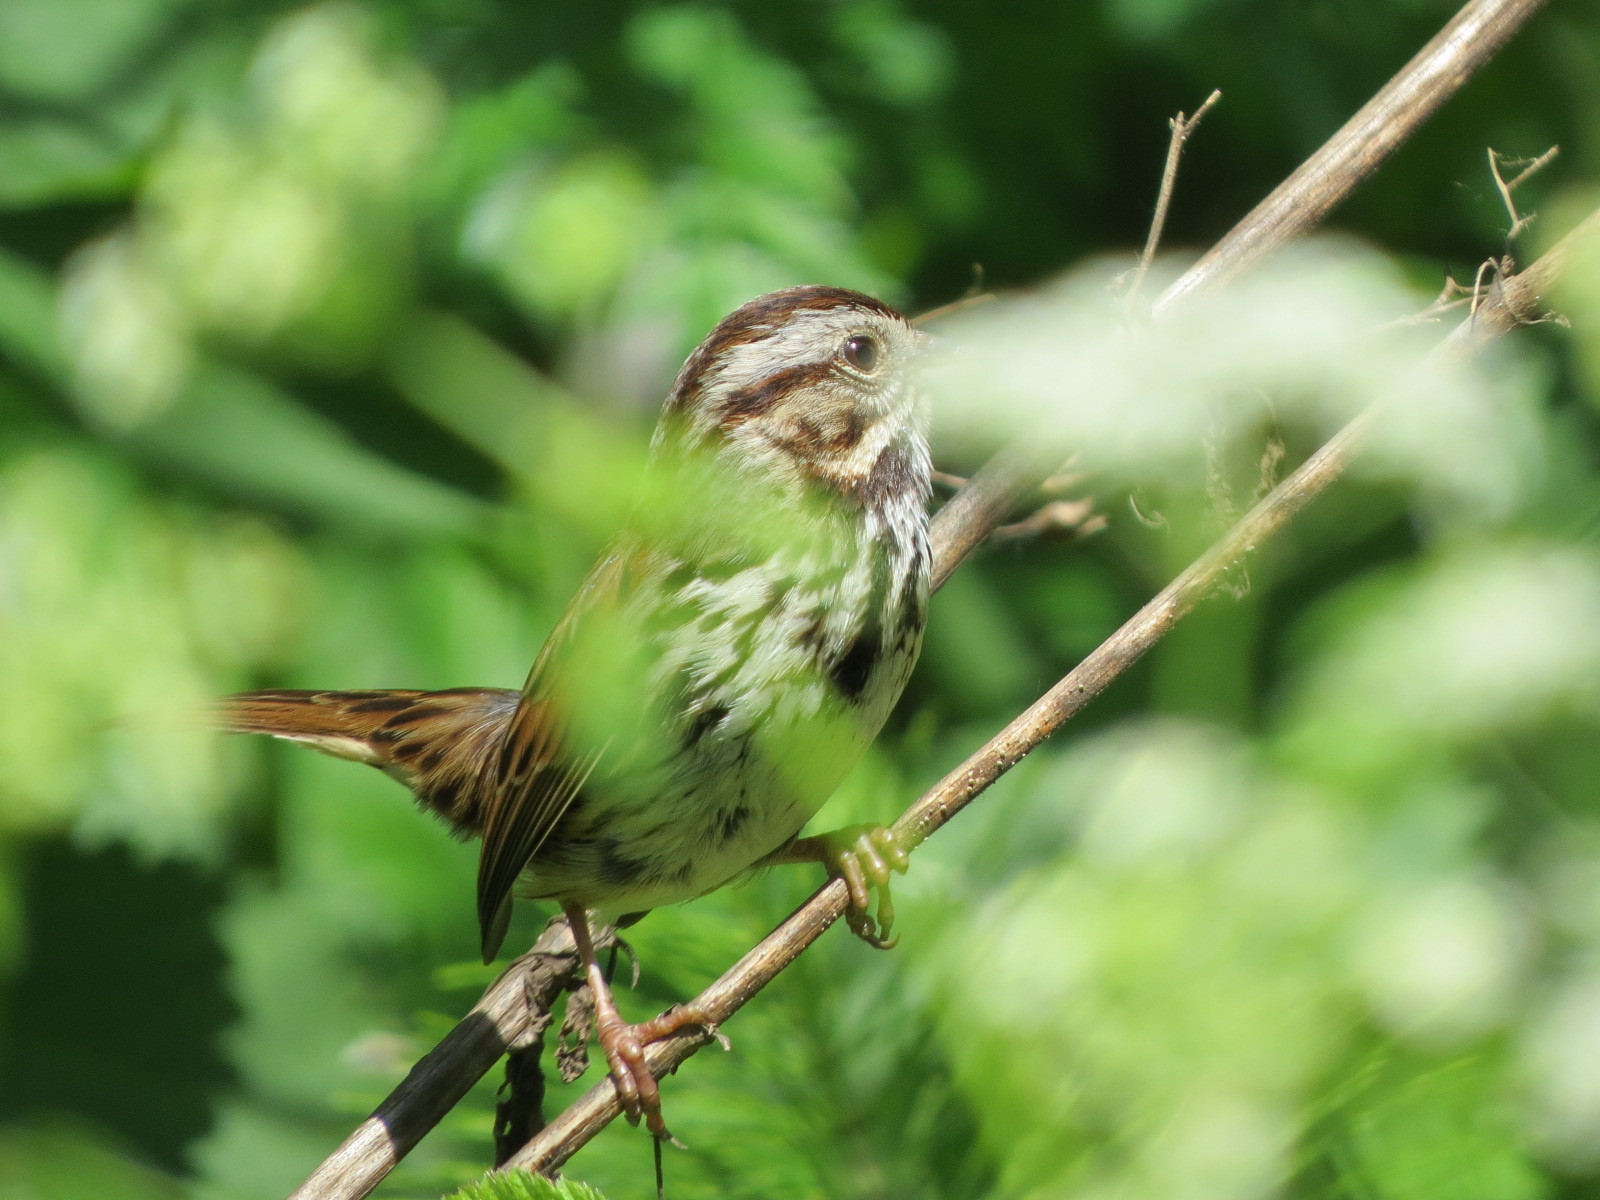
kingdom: Animalia
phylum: Chordata
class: Aves
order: Passeriformes
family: Passerellidae
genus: Melospiza
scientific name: Melospiza melodia
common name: Song sparrow
